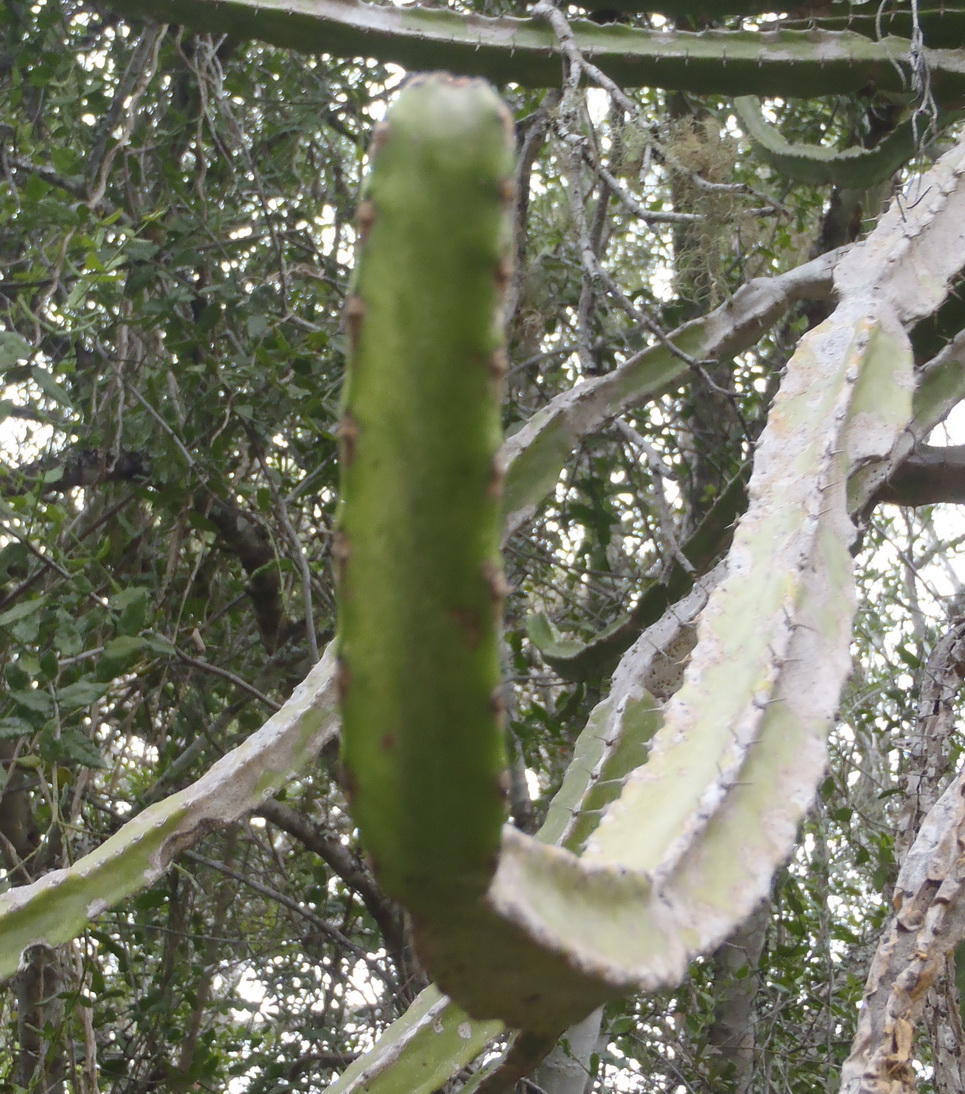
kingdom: Plantae
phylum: Tracheophyta
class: Magnoliopsida
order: Malpighiales
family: Euphorbiaceae
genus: Euphorbia
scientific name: Euphorbia tetragona
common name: Honey euphorbia
